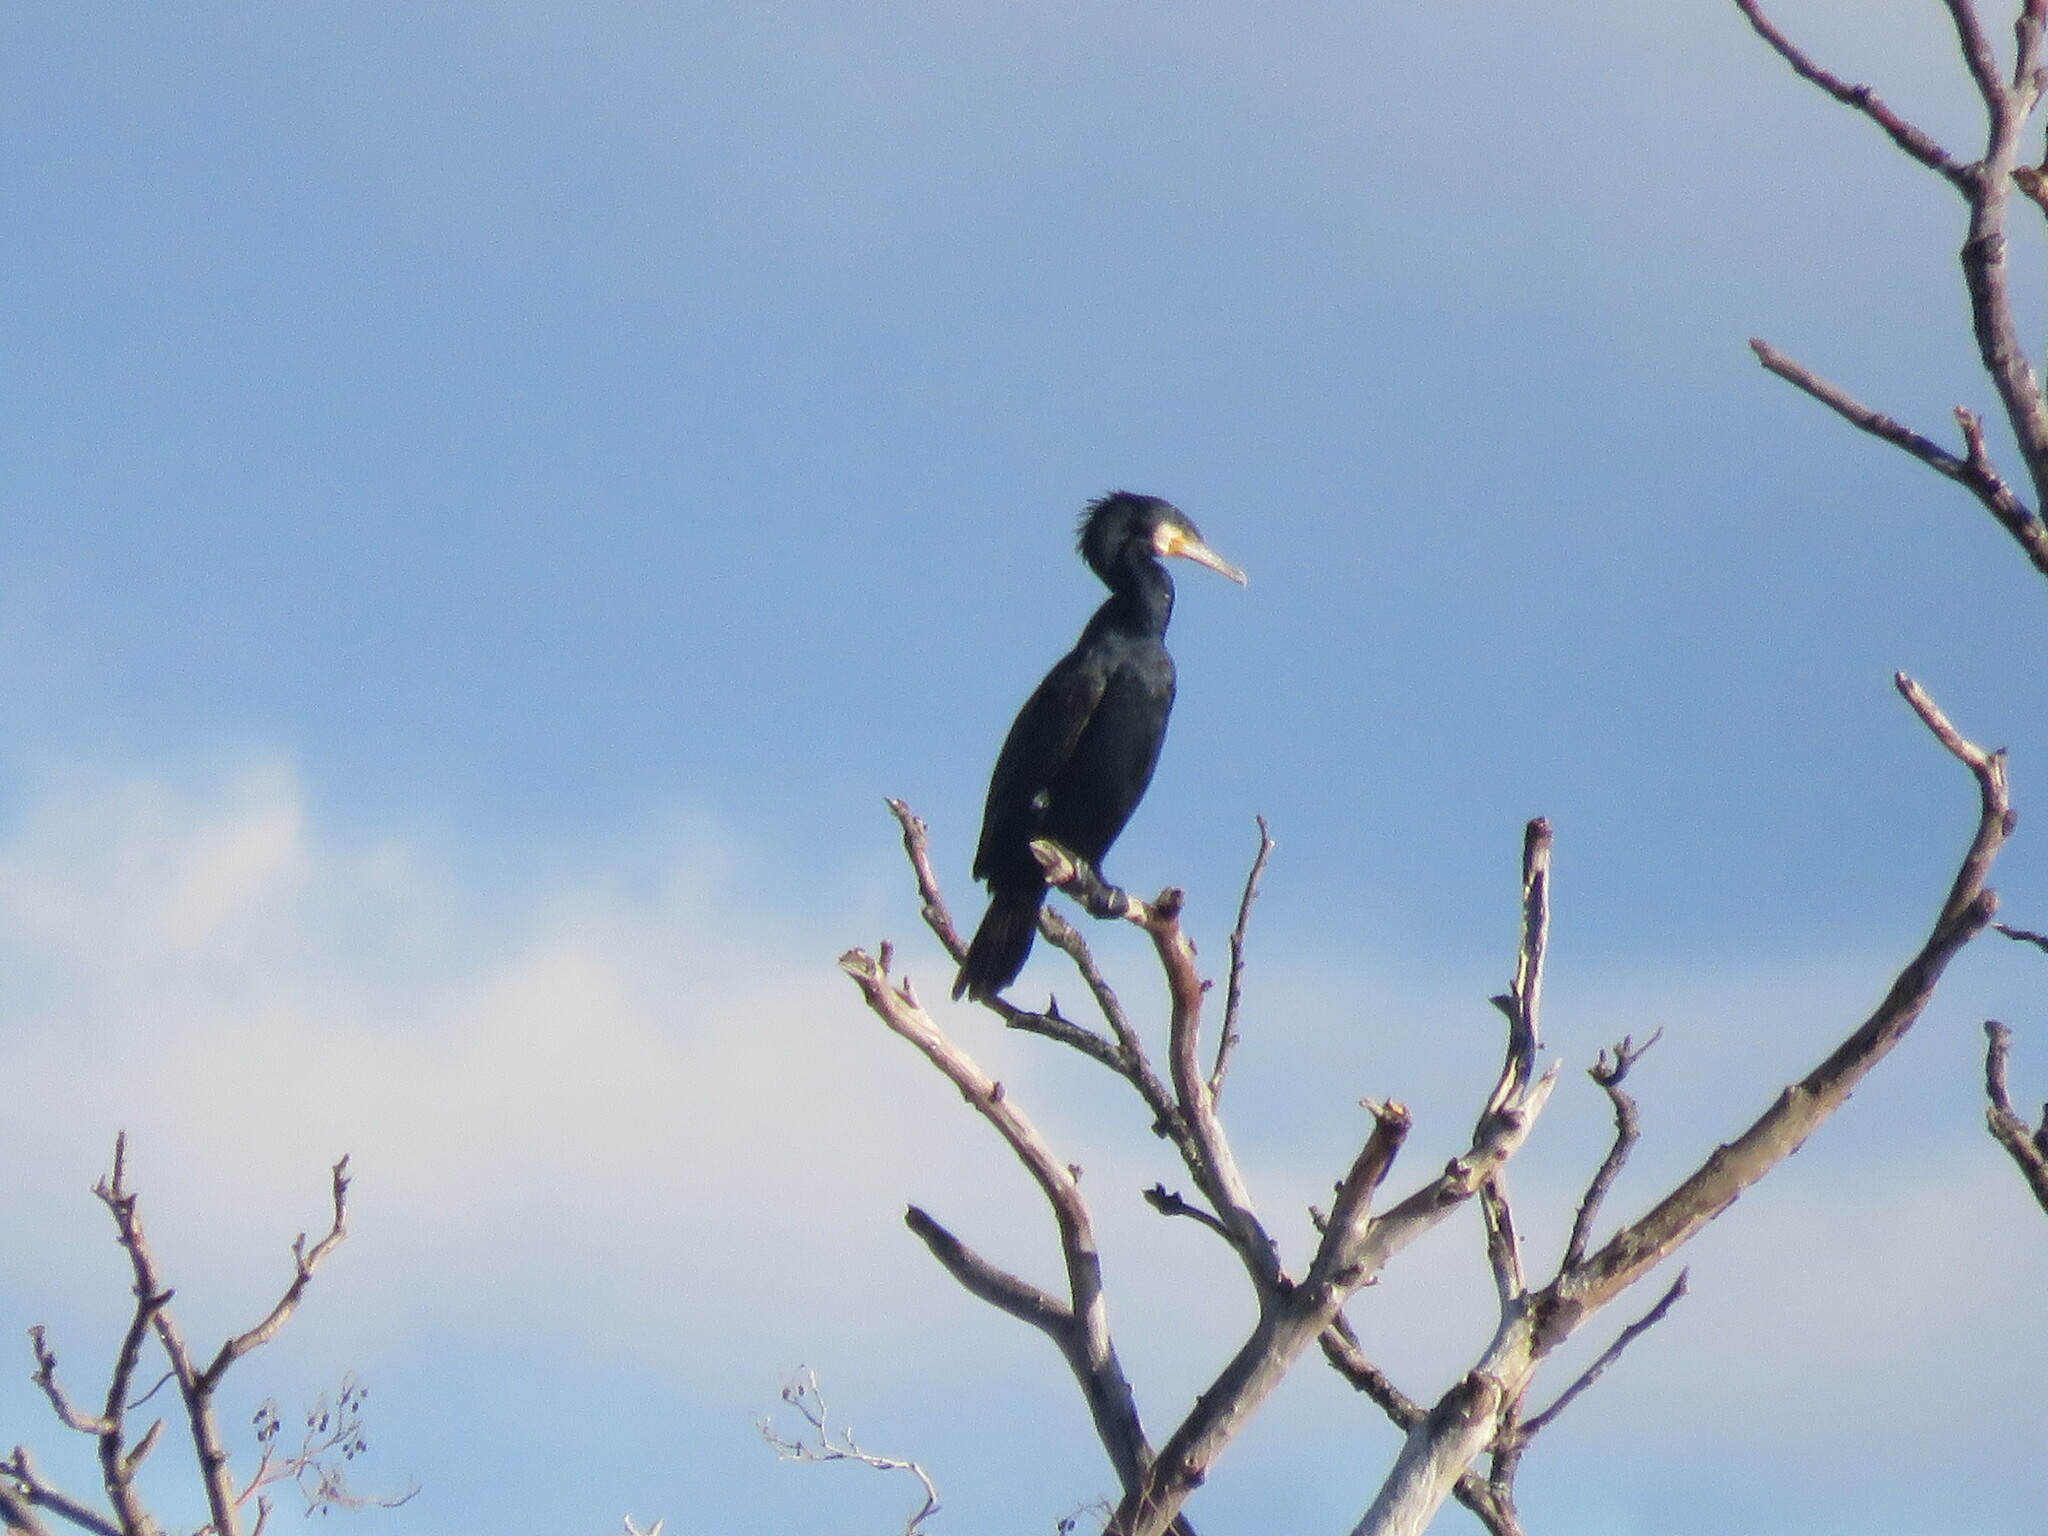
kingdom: Animalia
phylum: Chordata
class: Aves
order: Suliformes
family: Phalacrocoracidae
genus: Phalacrocorax
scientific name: Phalacrocorax carbo
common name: Great cormorant
